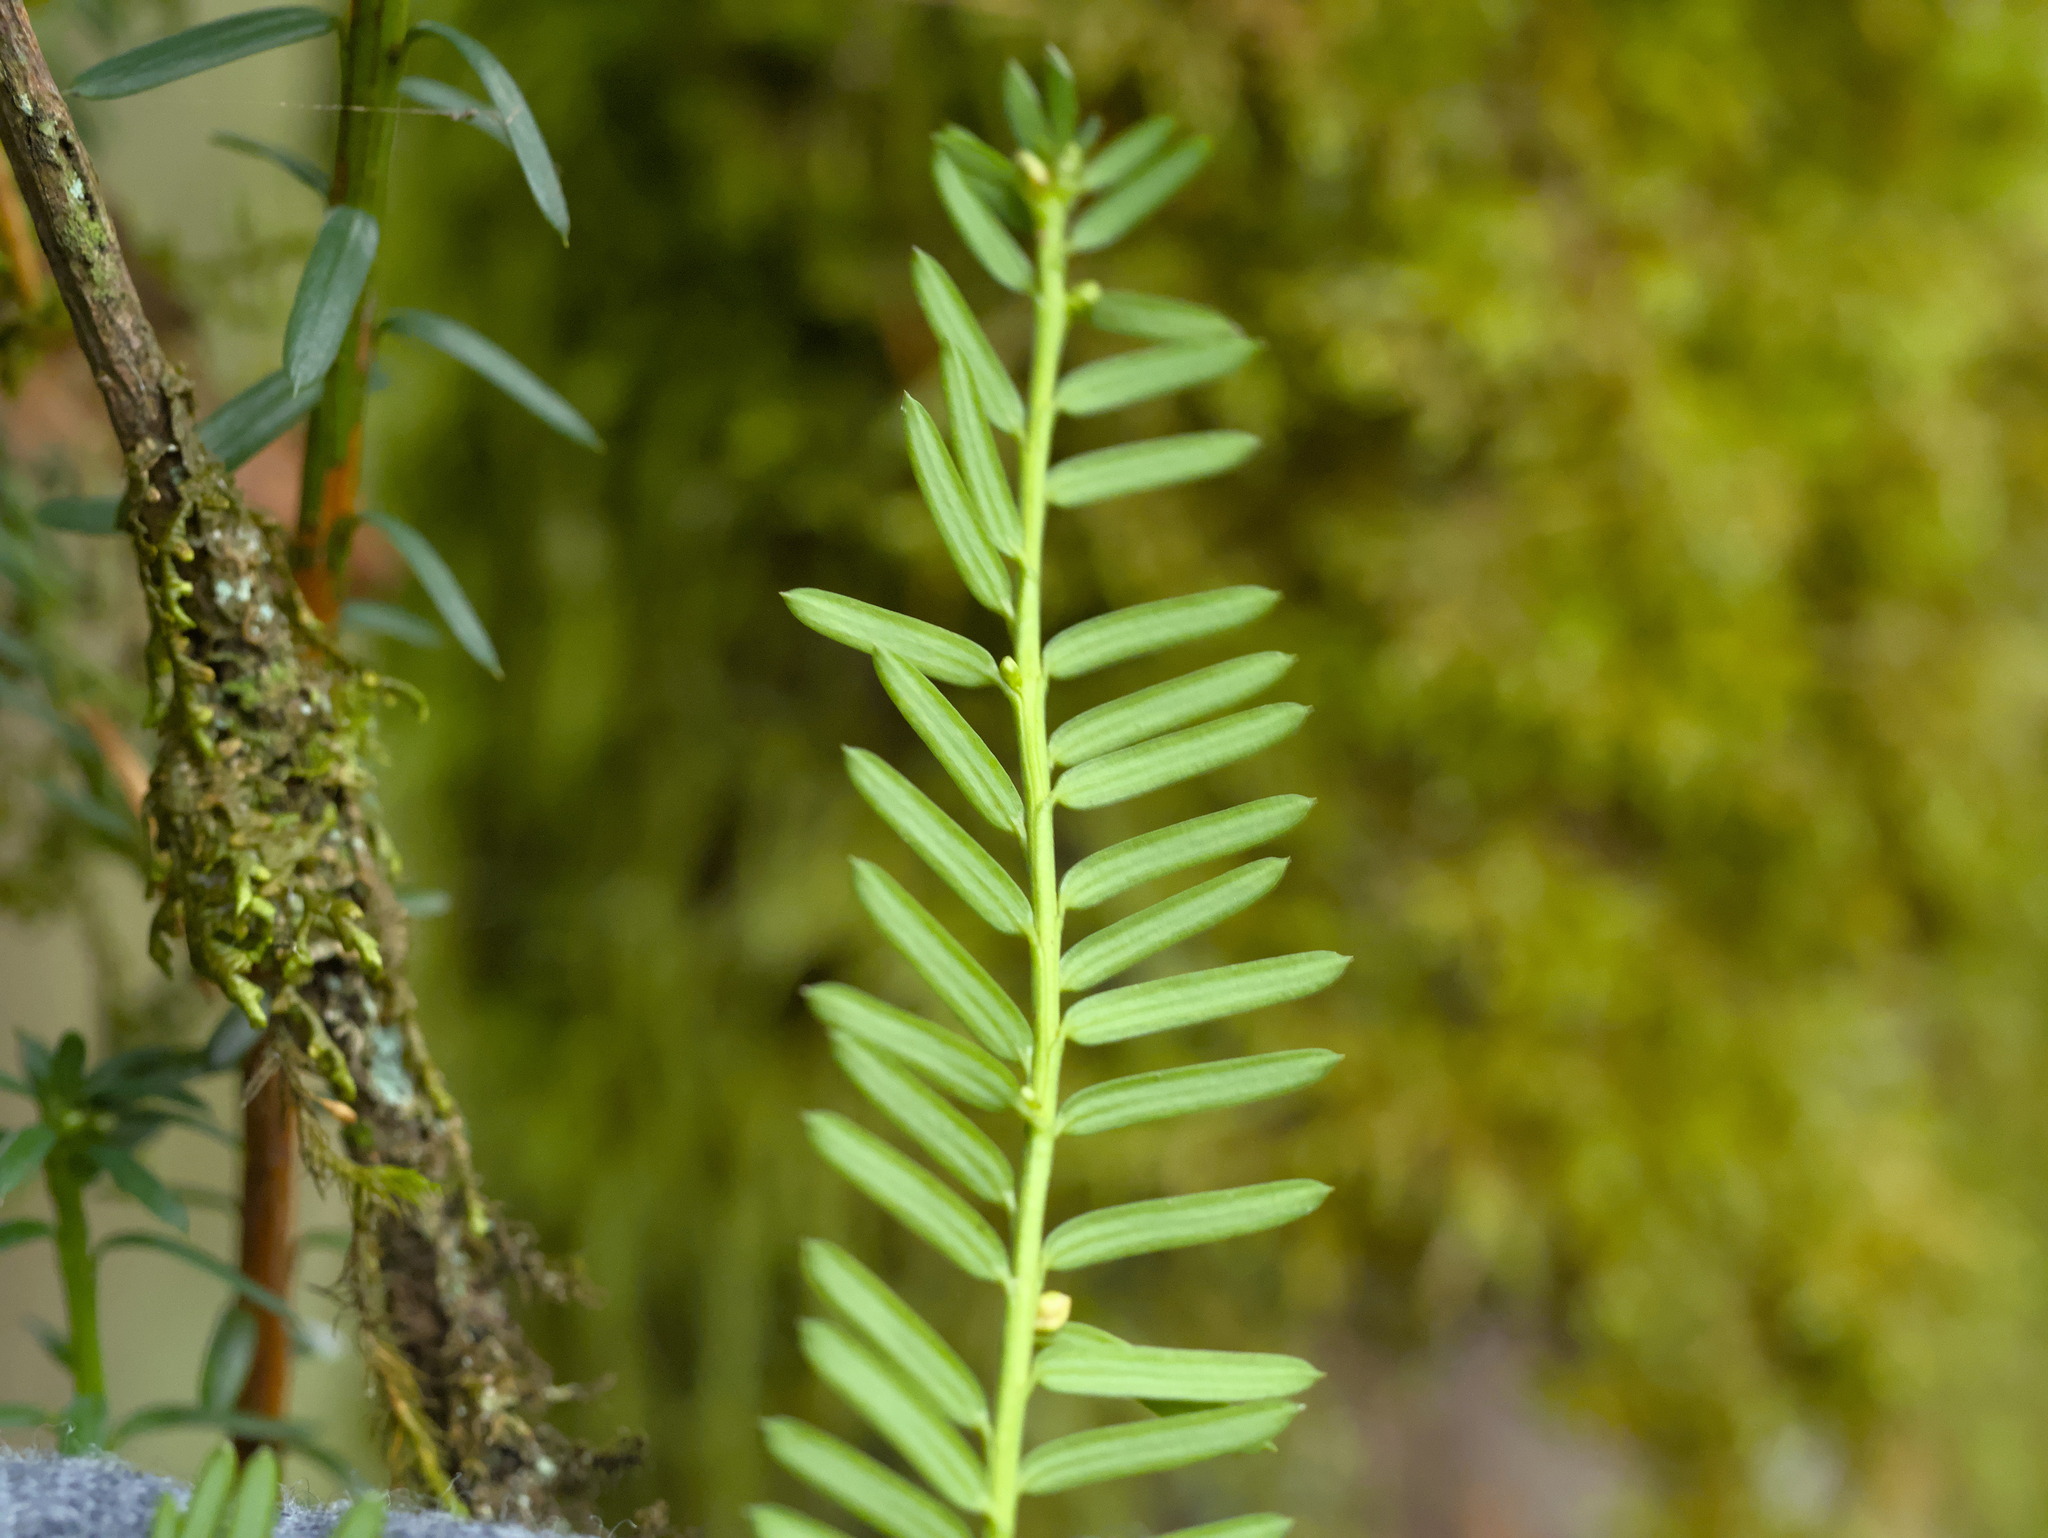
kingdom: Plantae
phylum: Tracheophyta
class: Pinopsida
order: Pinales
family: Taxaceae
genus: Taxus
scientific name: Taxus brevifolia
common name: Pacific yew
